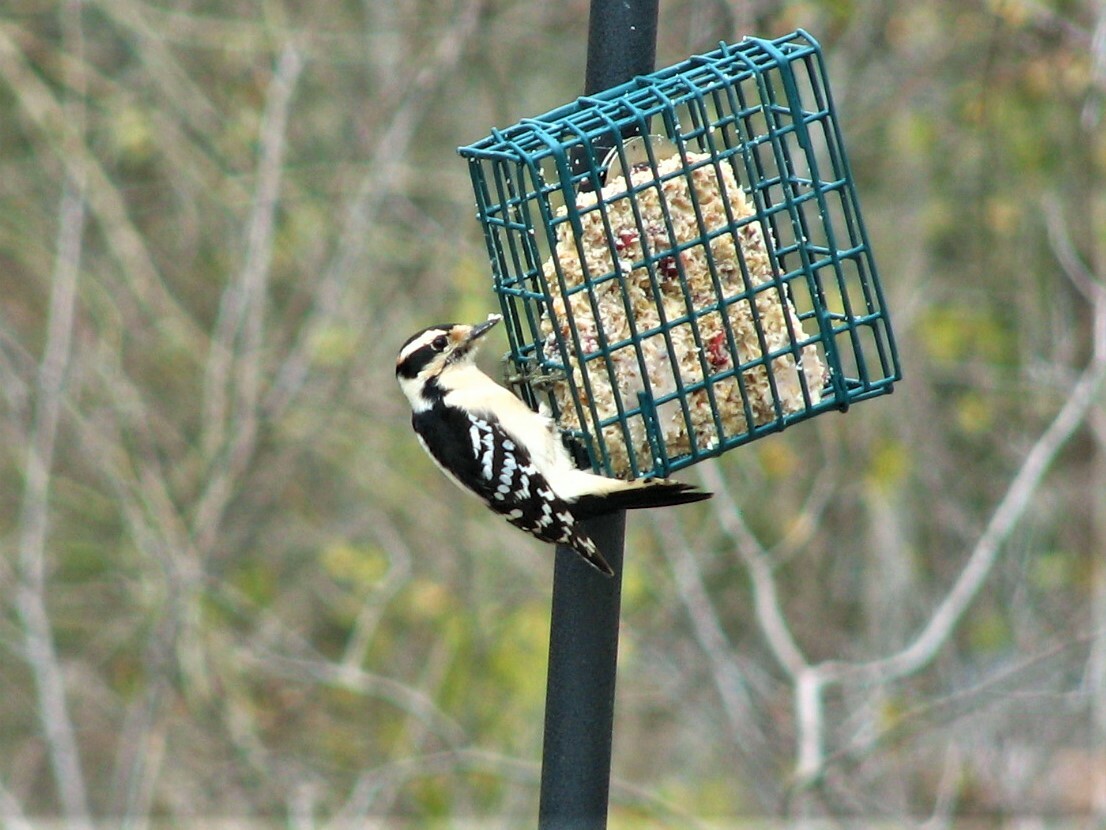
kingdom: Animalia
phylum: Chordata
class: Aves
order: Piciformes
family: Picidae
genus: Dryobates
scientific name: Dryobates pubescens
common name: Downy woodpecker
